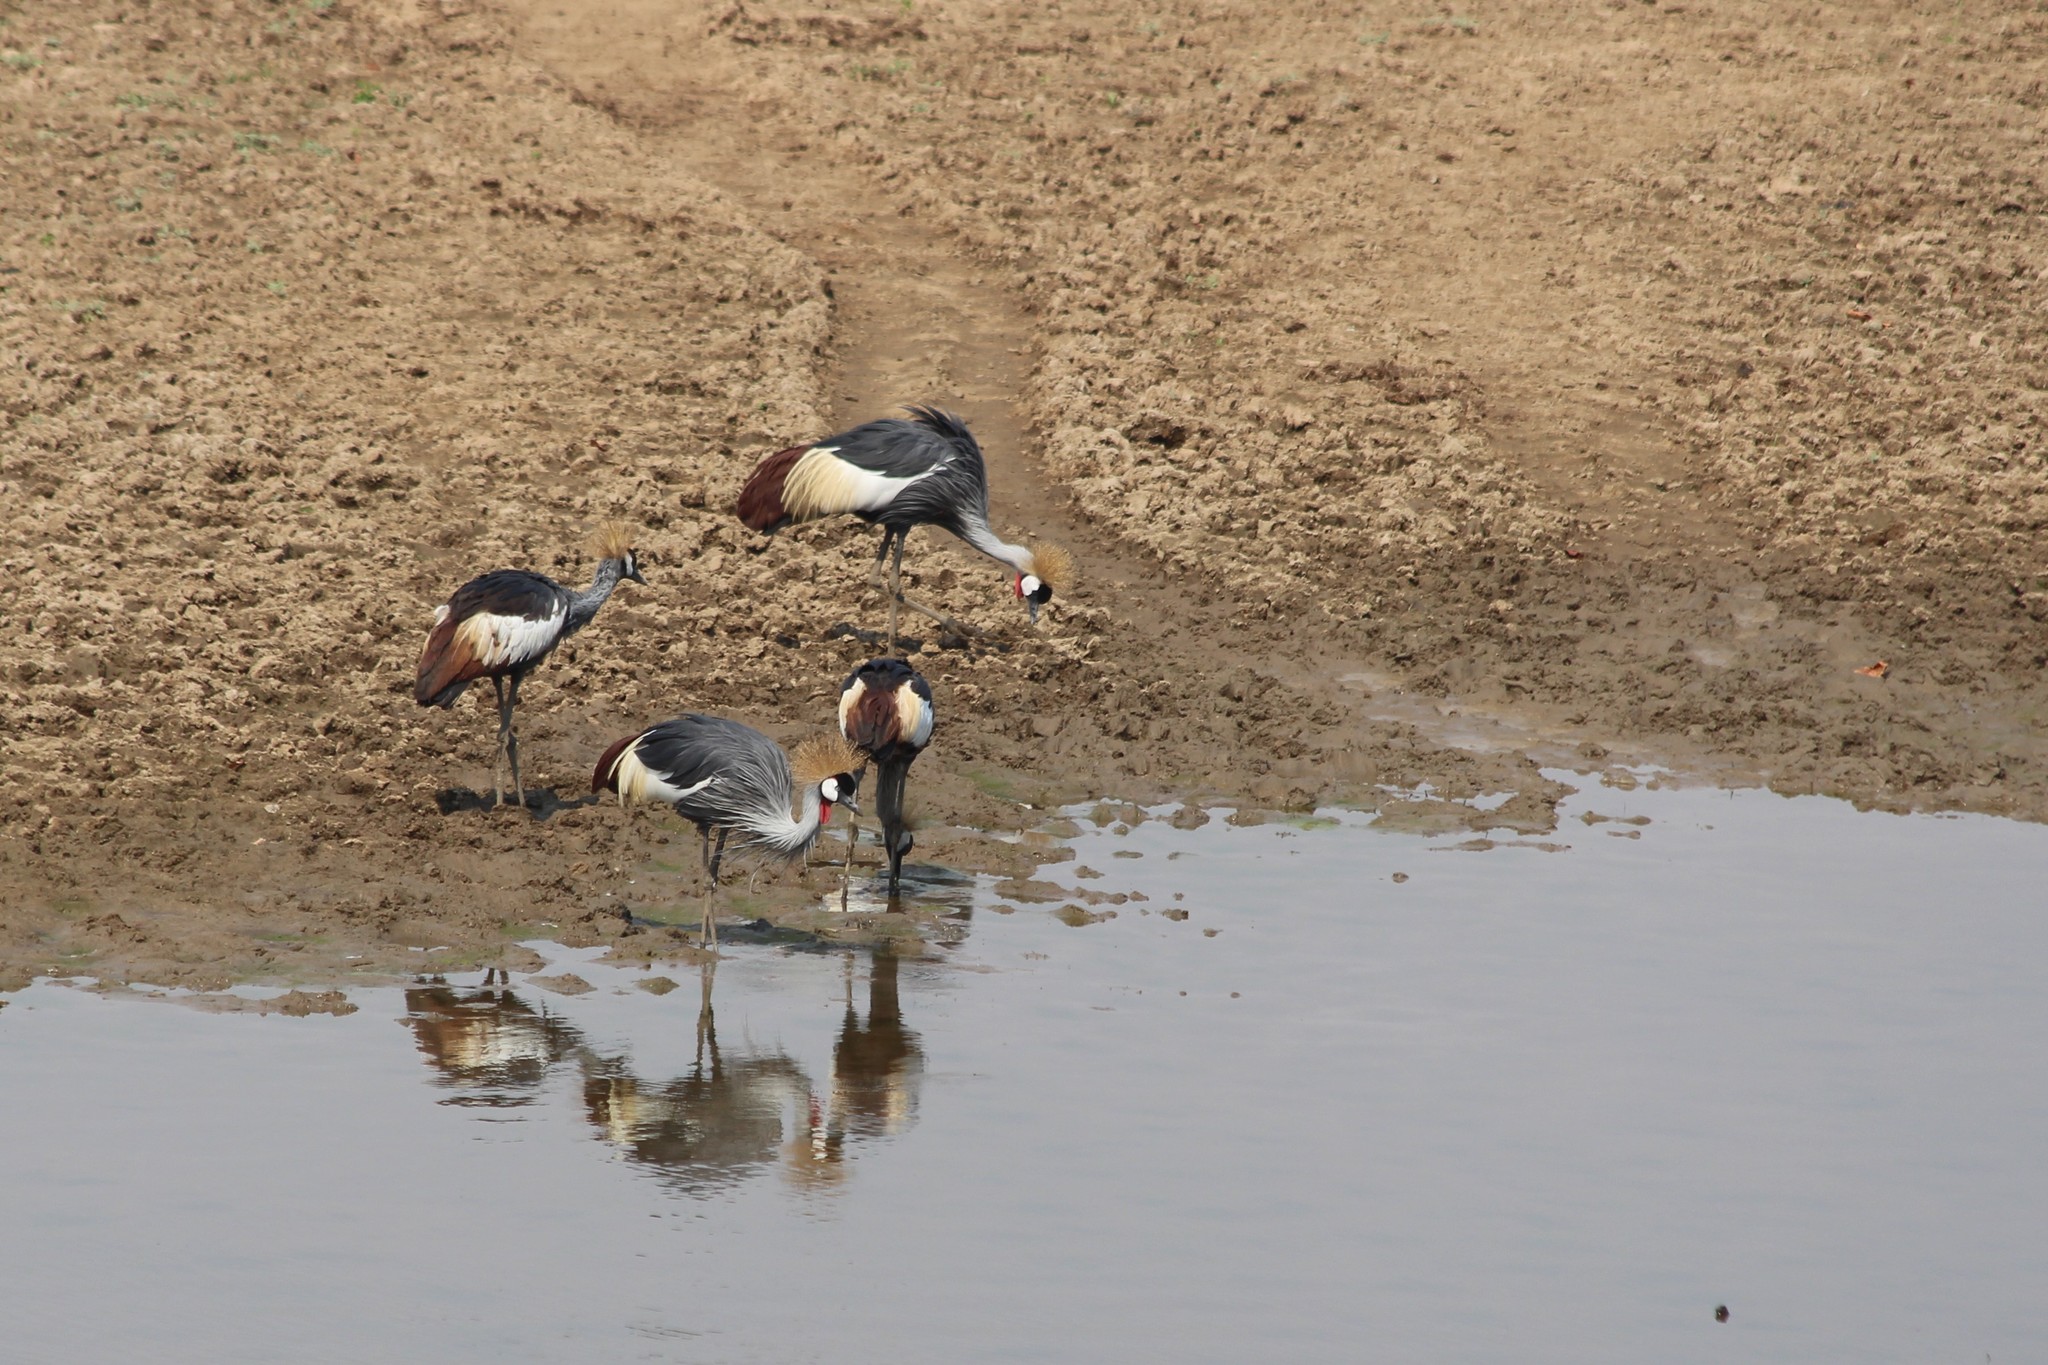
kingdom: Animalia
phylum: Chordata
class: Aves
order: Gruiformes
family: Gruidae
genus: Balearica
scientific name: Balearica regulorum
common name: Grey crowned crane
